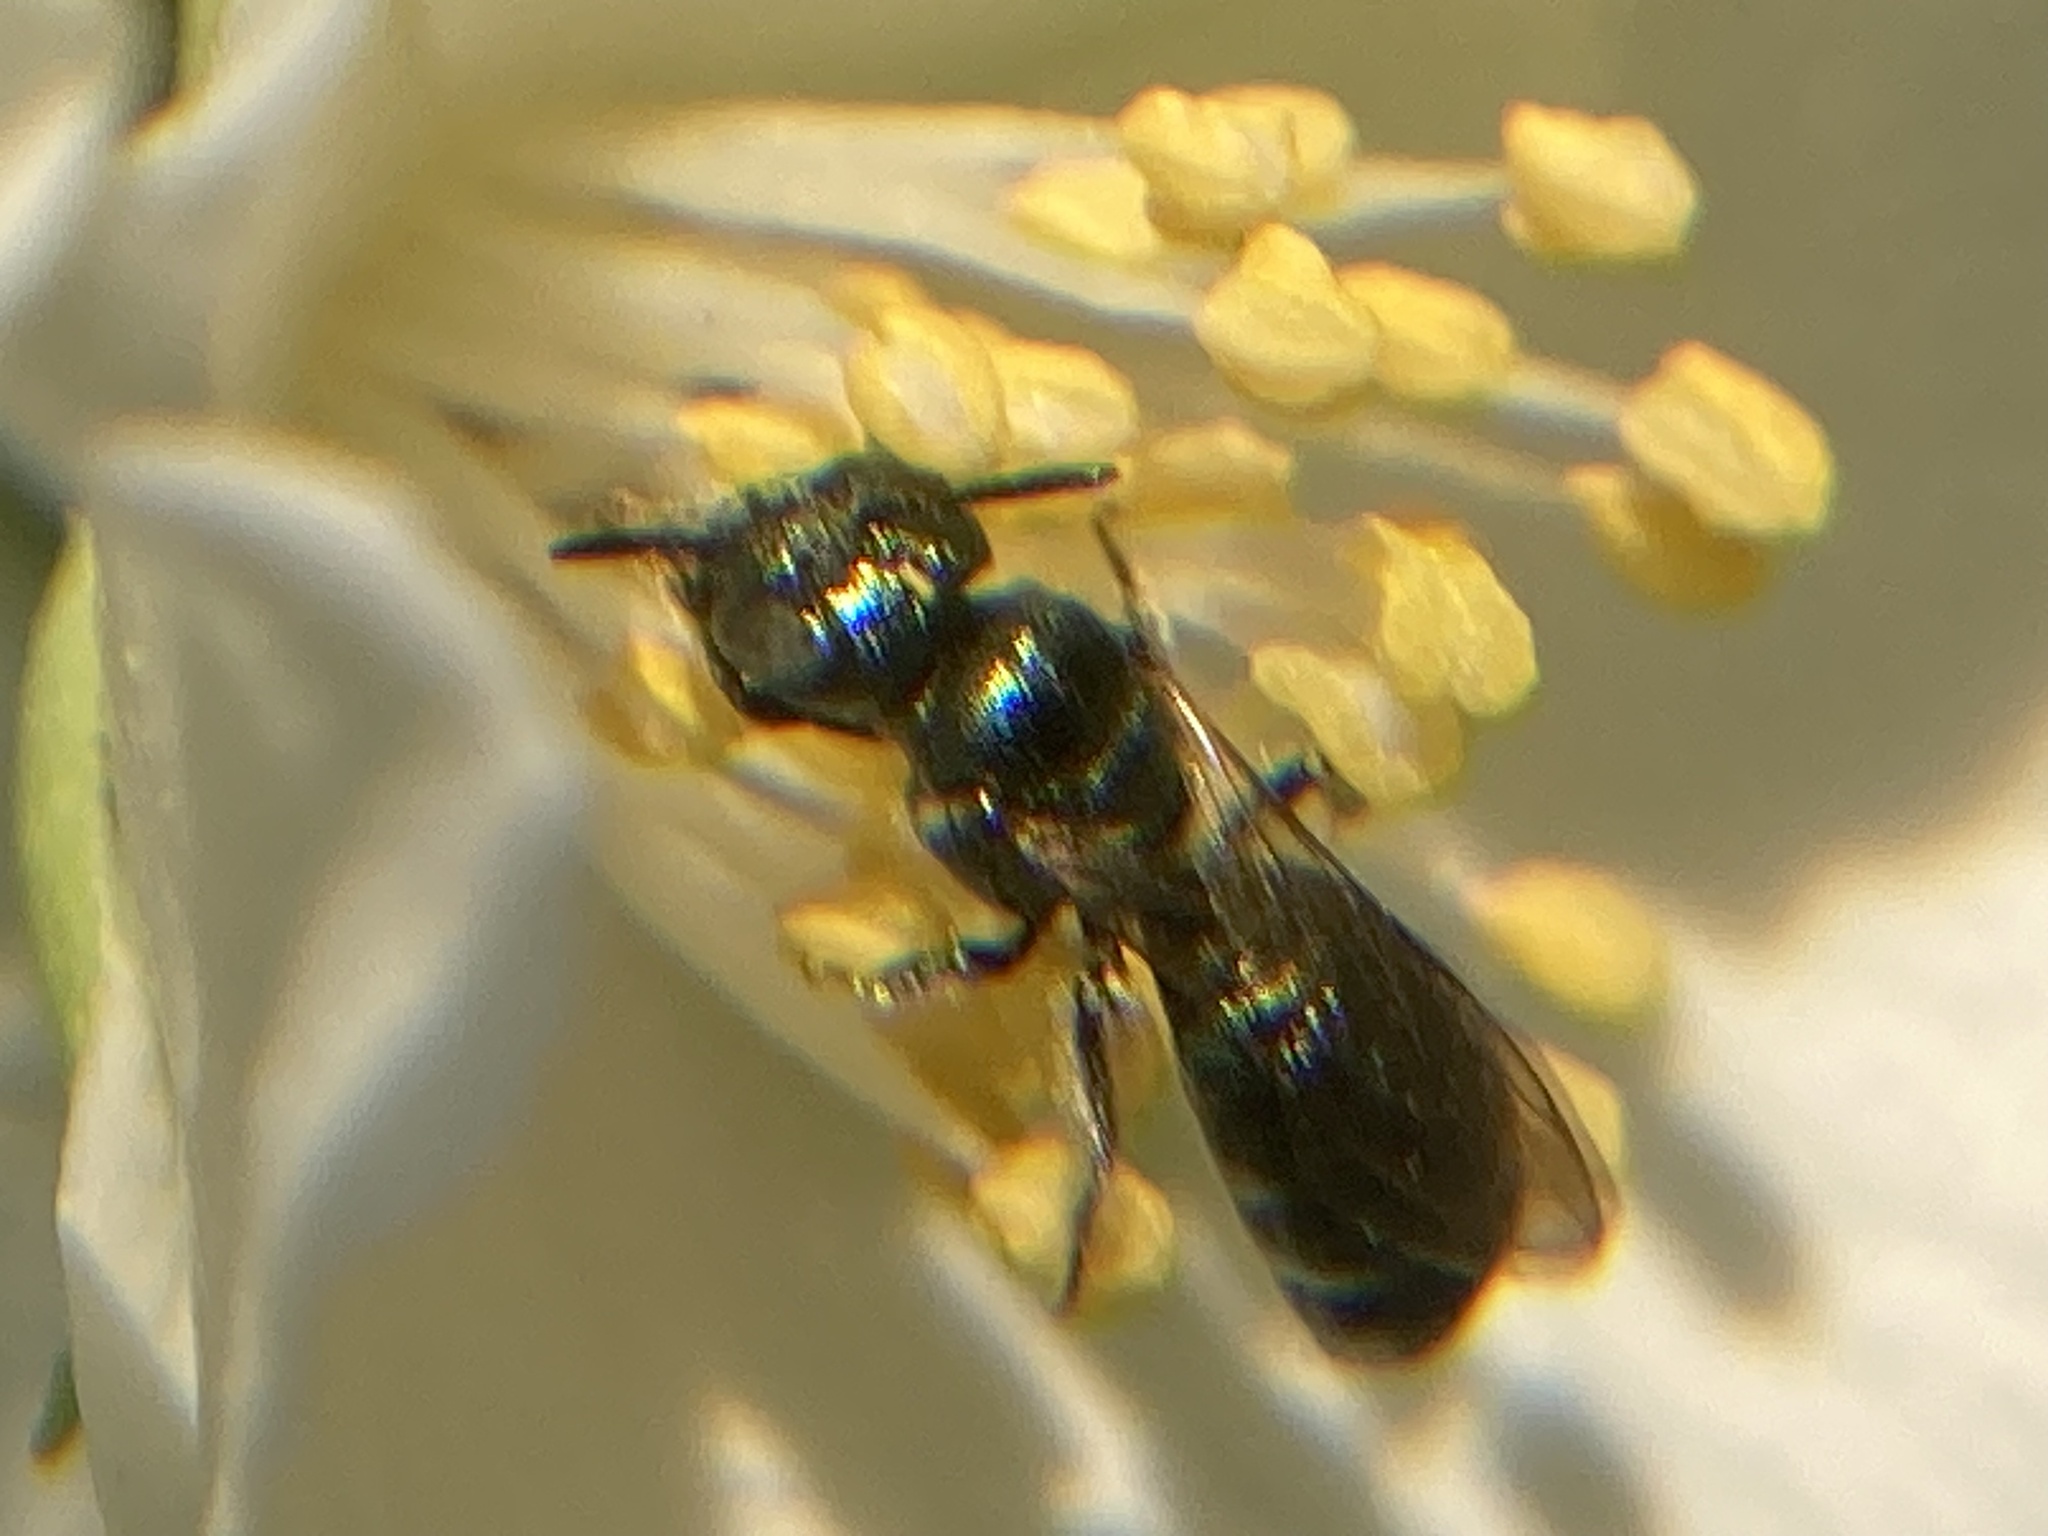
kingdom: Animalia
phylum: Arthropoda
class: Insecta
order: Hymenoptera
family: Apidae
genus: Zadontomerus
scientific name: Zadontomerus
